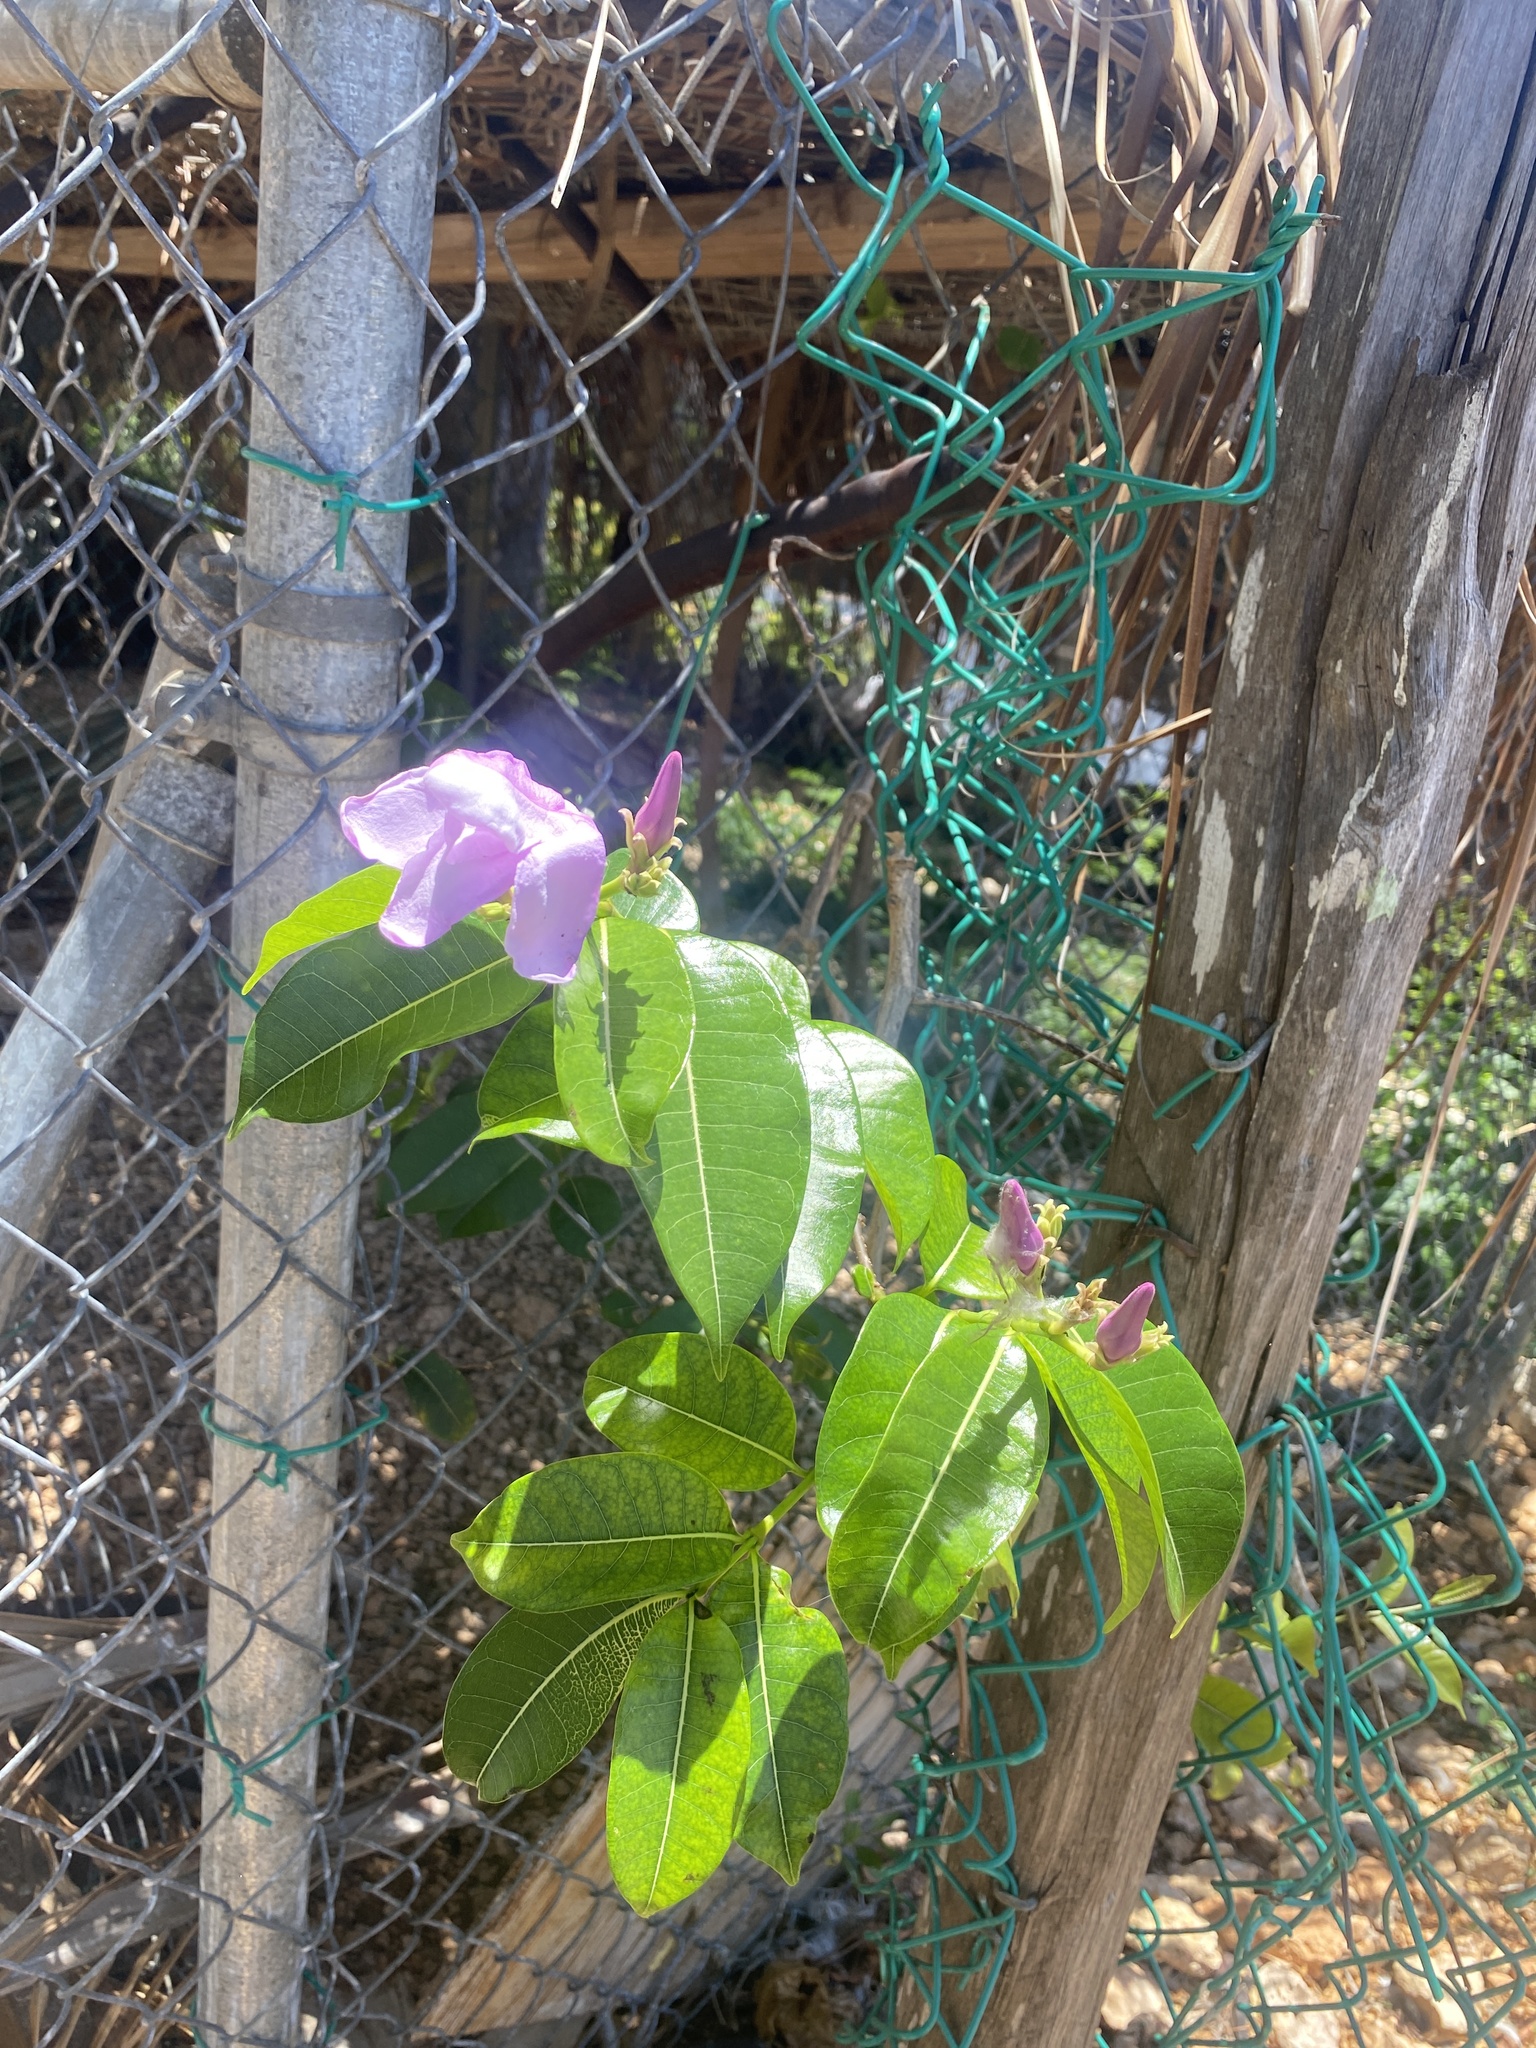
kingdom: Plantae
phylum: Tracheophyta
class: Magnoliopsida
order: Gentianales
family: Apocynaceae
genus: Cryptostegia
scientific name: Cryptostegia madagascariensis
